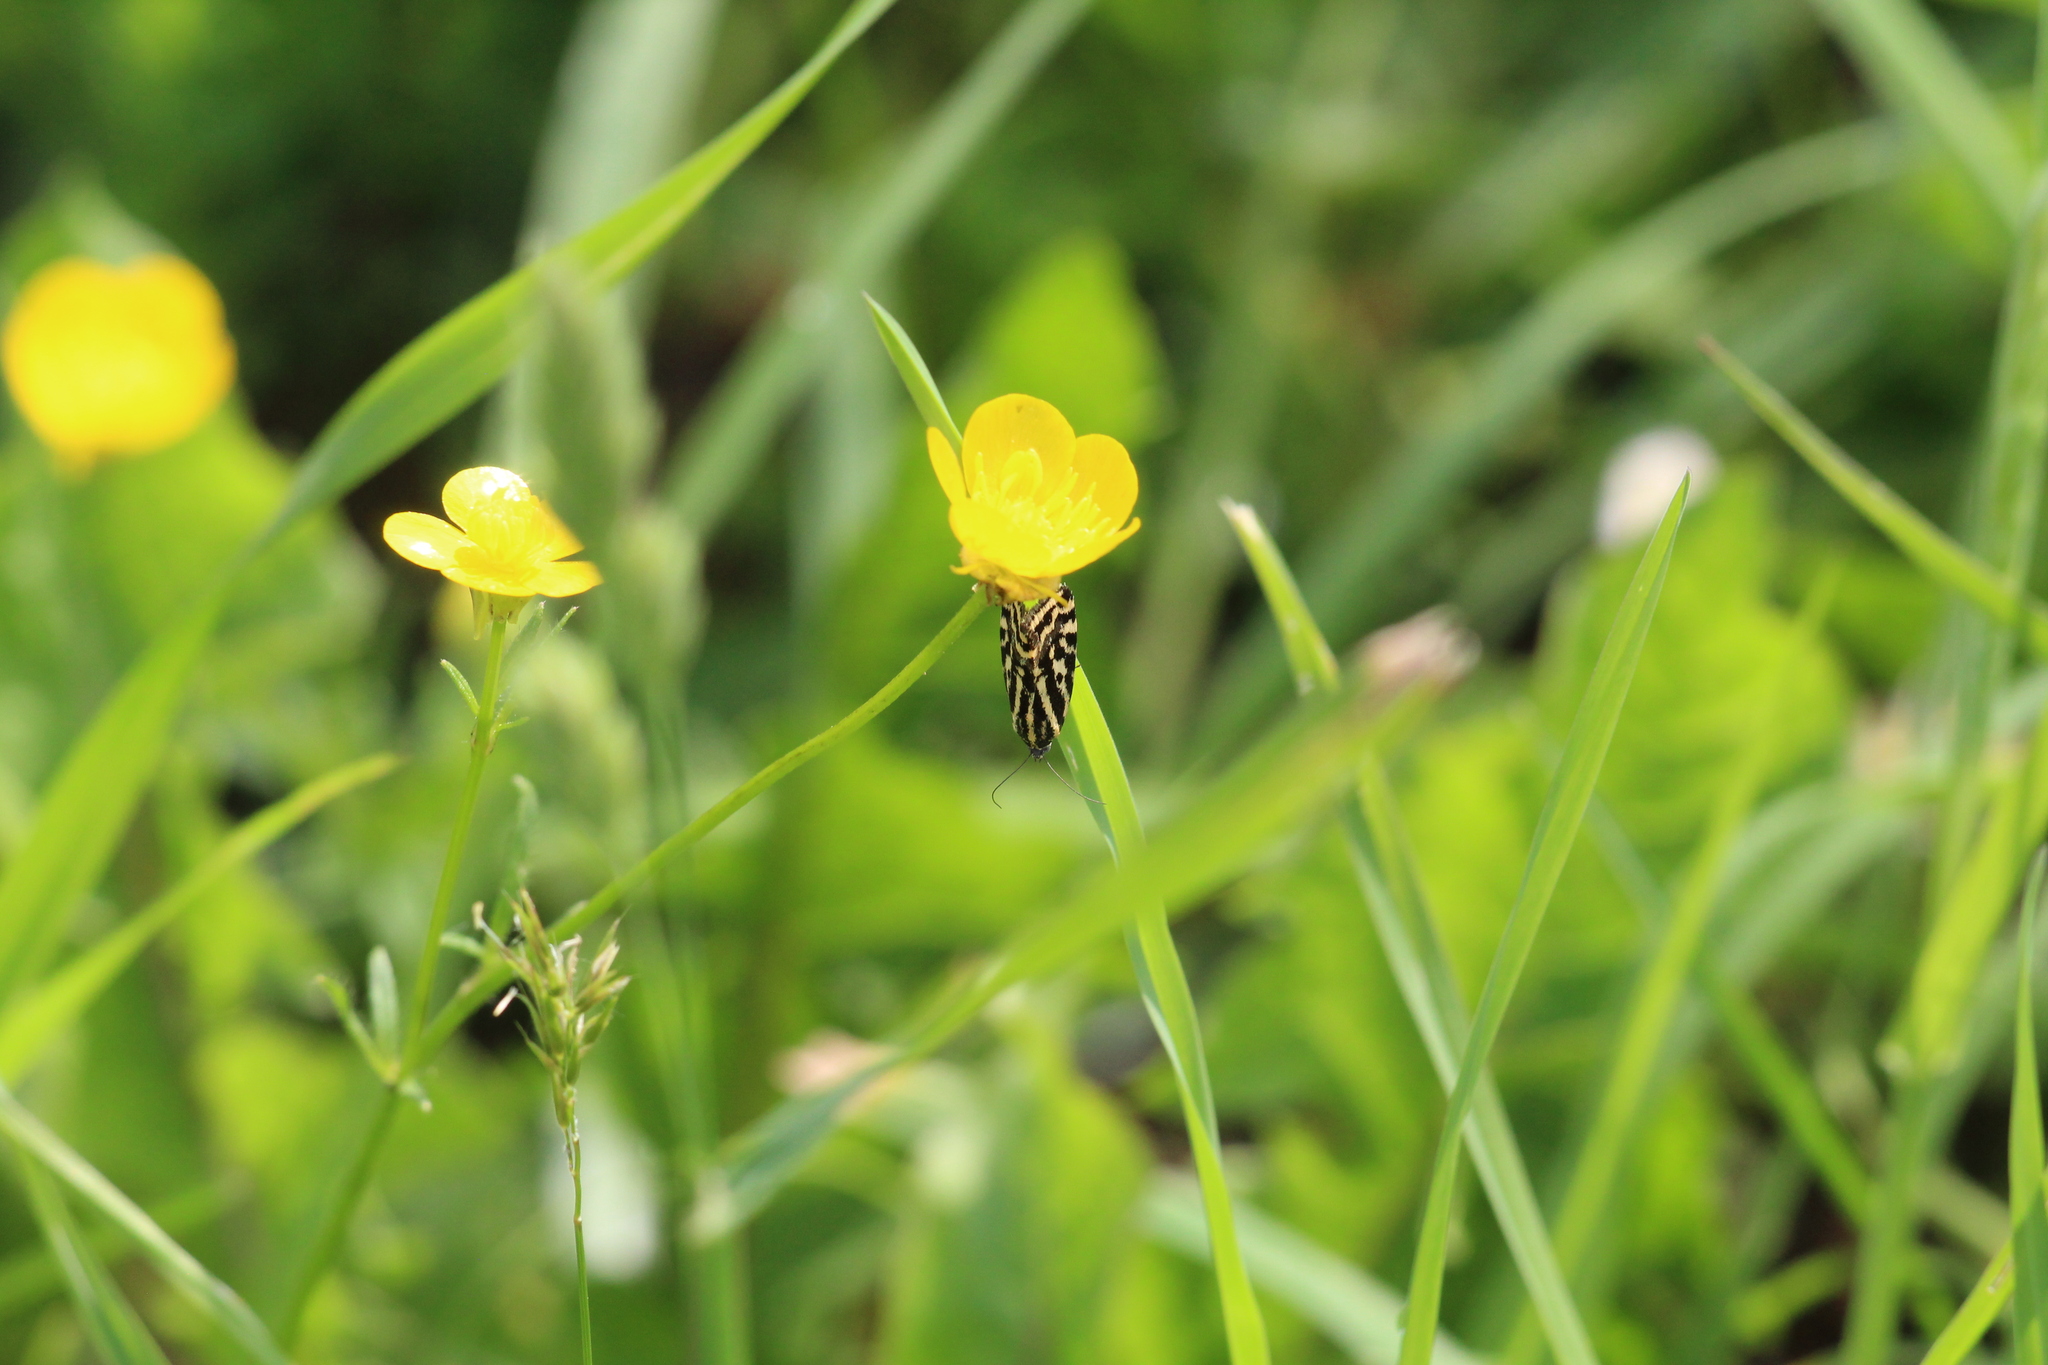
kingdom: Animalia
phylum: Arthropoda
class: Insecta
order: Lepidoptera
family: Noctuidae
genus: Acontia
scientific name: Acontia trabealis
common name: Spotted sulphur
